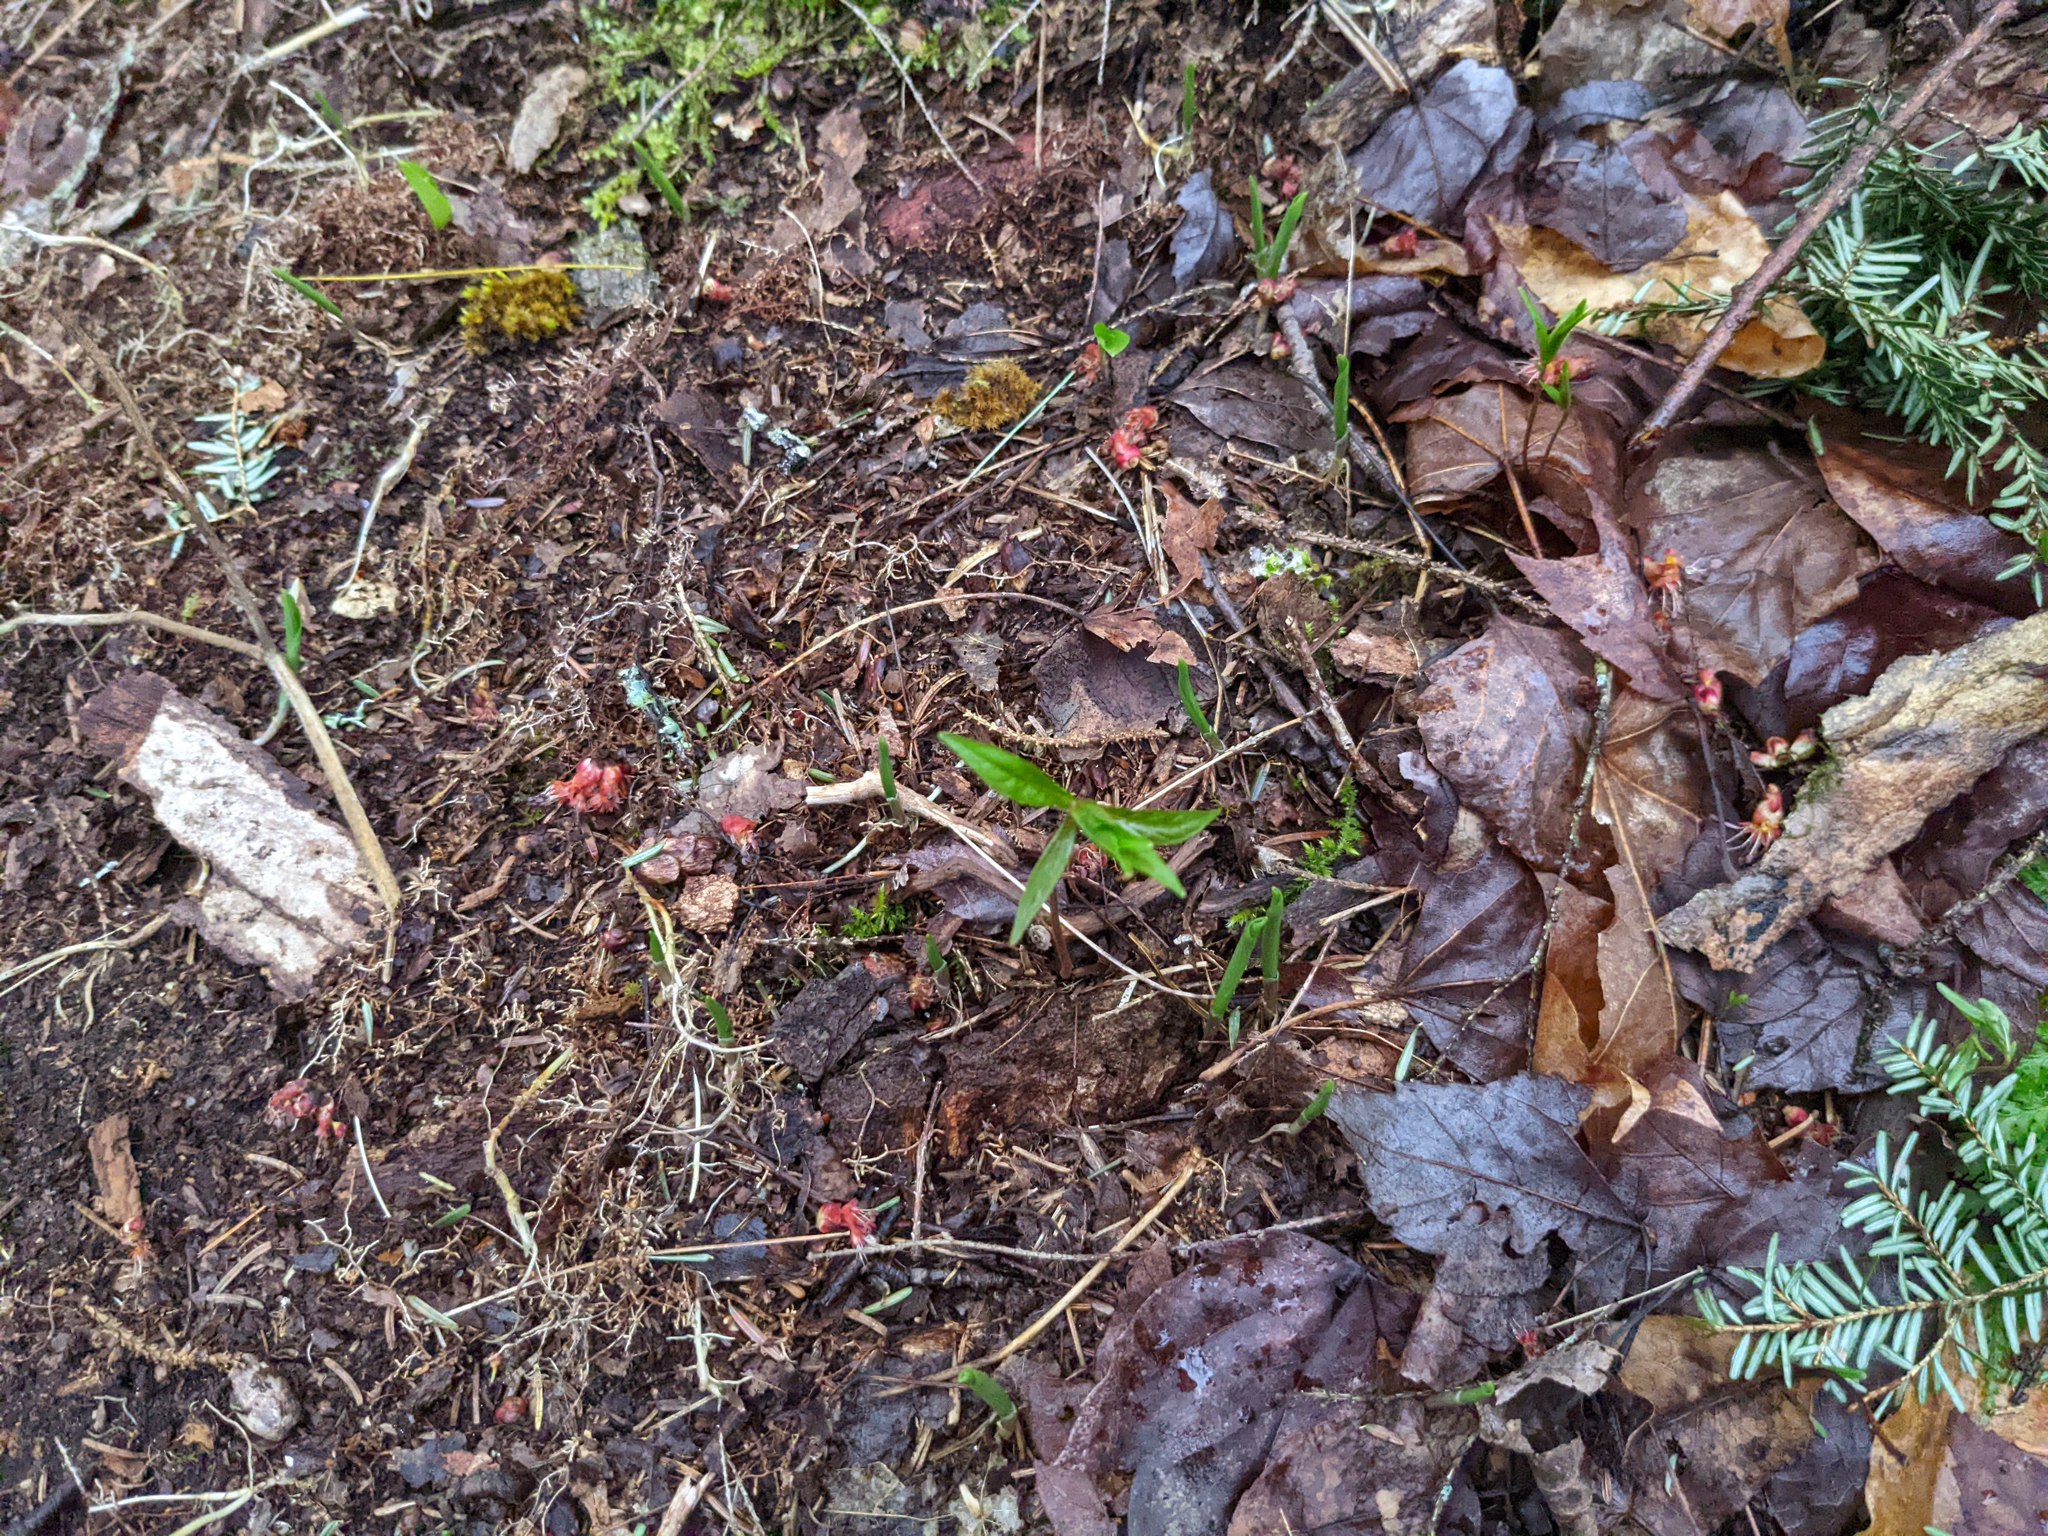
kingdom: Plantae
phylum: Tracheophyta
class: Magnoliopsida
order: Ericales
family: Primulaceae
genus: Lysimachia
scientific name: Lysimachia borealis
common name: American starflower
